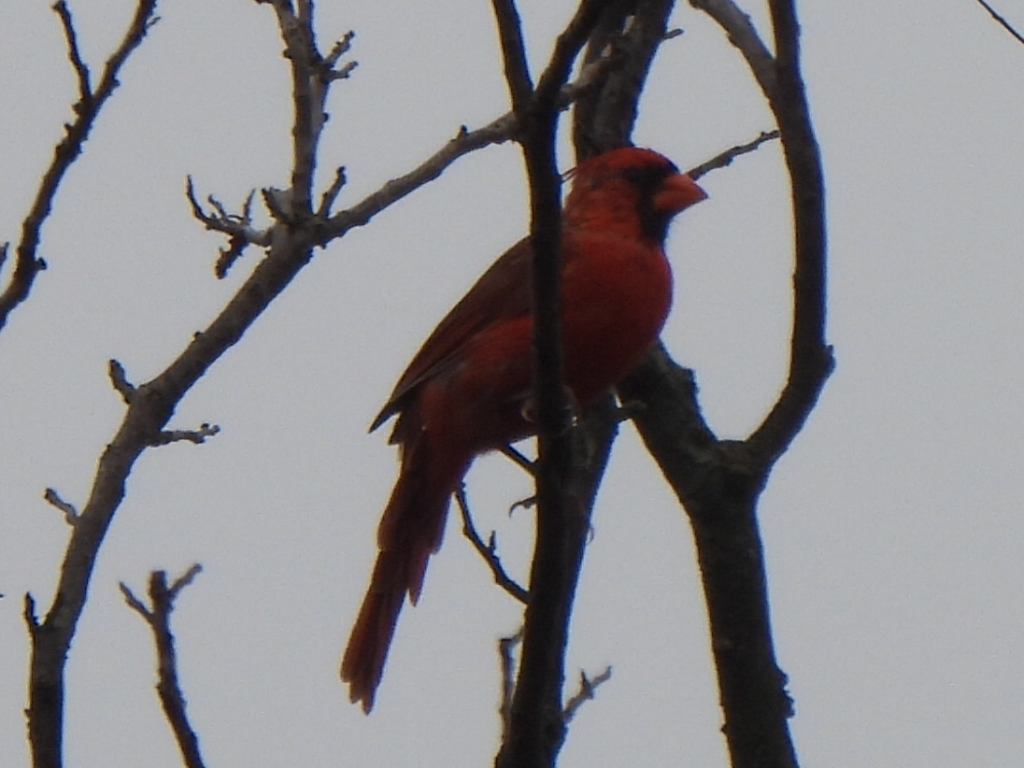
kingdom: Animalia
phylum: Chordata
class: Aves
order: Passeriformes
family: Cardinalidae
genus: Cardinalis
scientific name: Cardinalis cardinalis
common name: Northern cardinal
